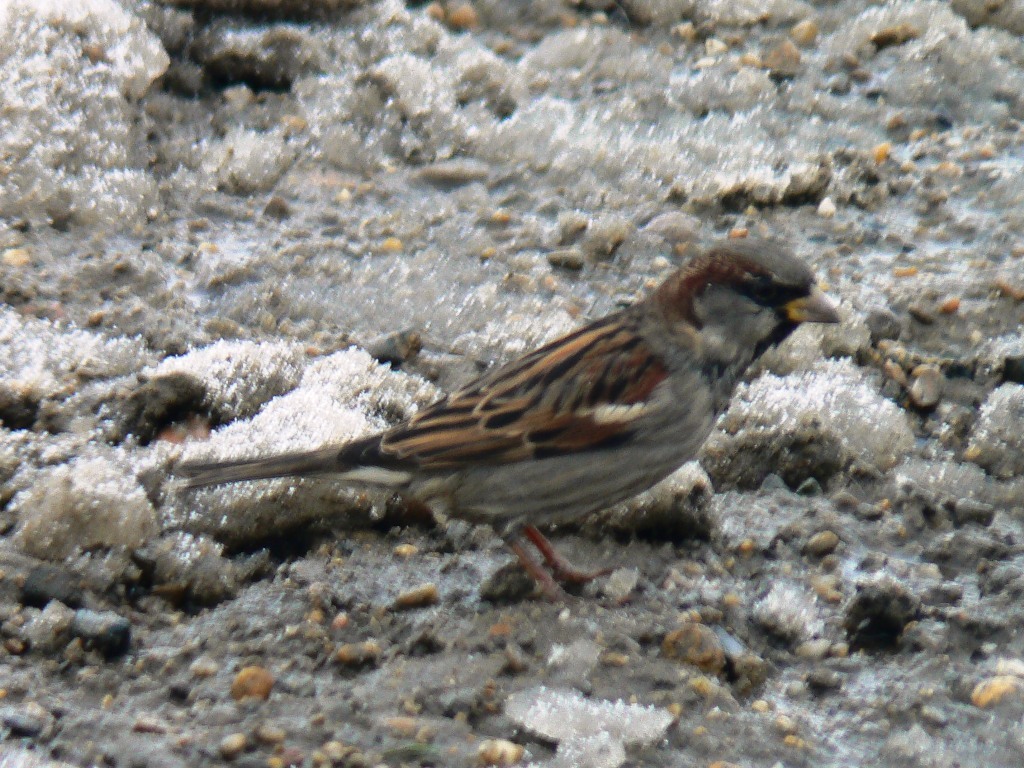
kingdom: Animalia
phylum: Chordata
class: Aves
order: Passeriformes
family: Passeridae
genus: Passer
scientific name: Passer domesticus
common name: House sparrow
